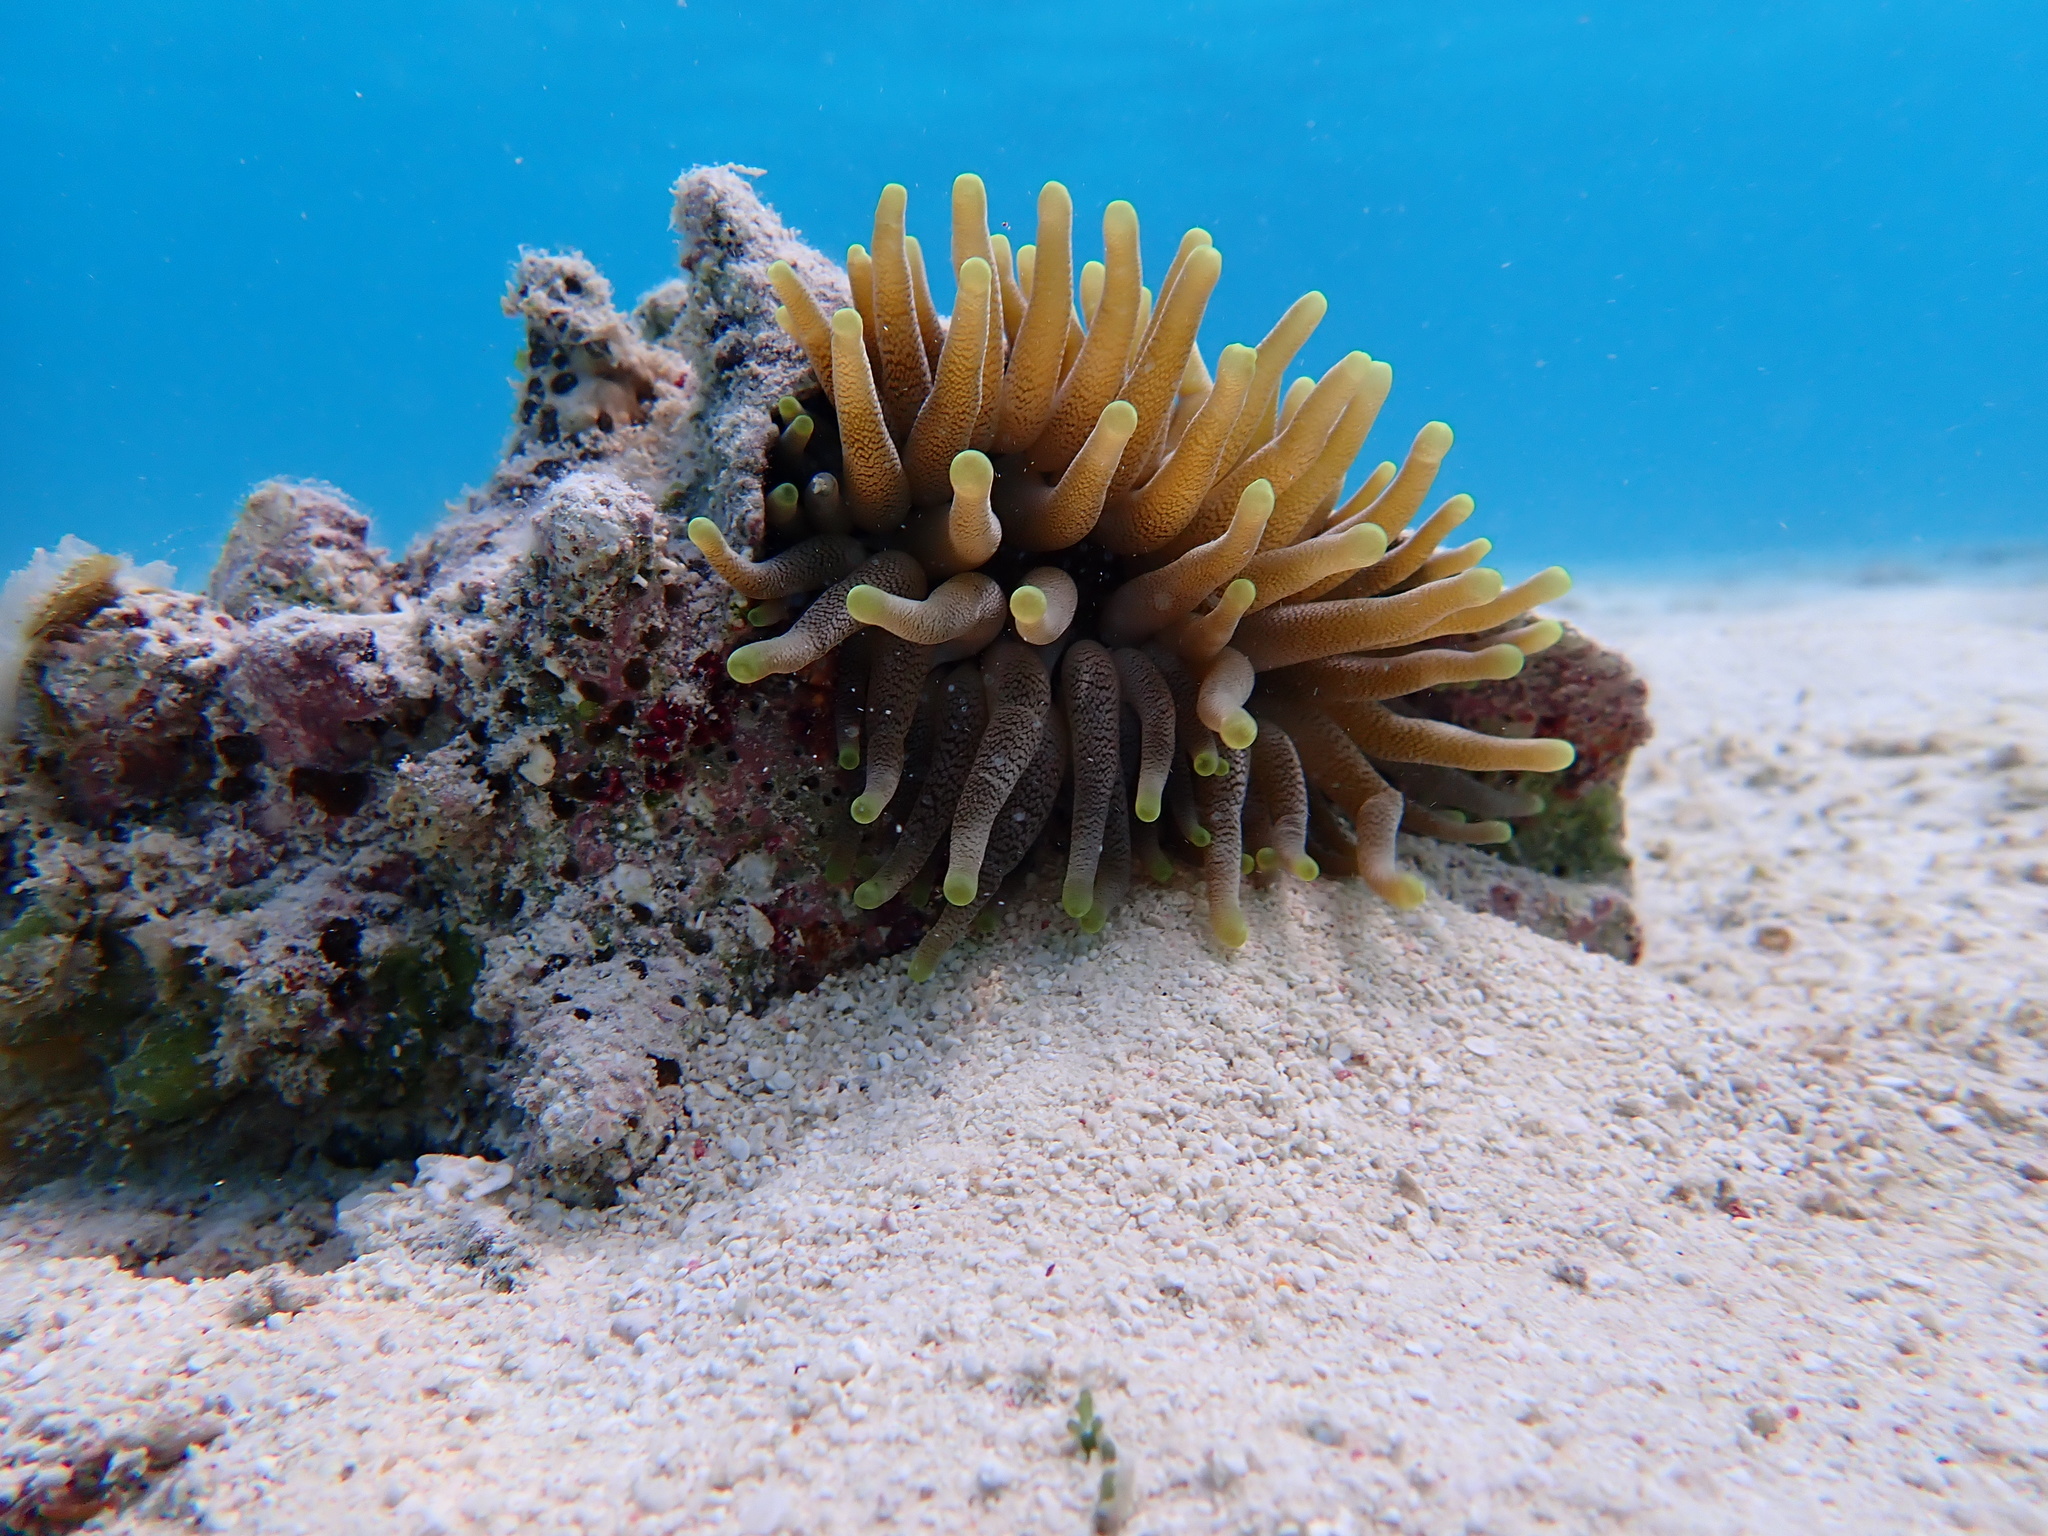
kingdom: Animalia
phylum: Cnidaria
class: Anthozoa
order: Actiniaria
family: Actiniidae
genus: Condylactis
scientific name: Condylactis gigantea
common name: Giant caribbean anemone
